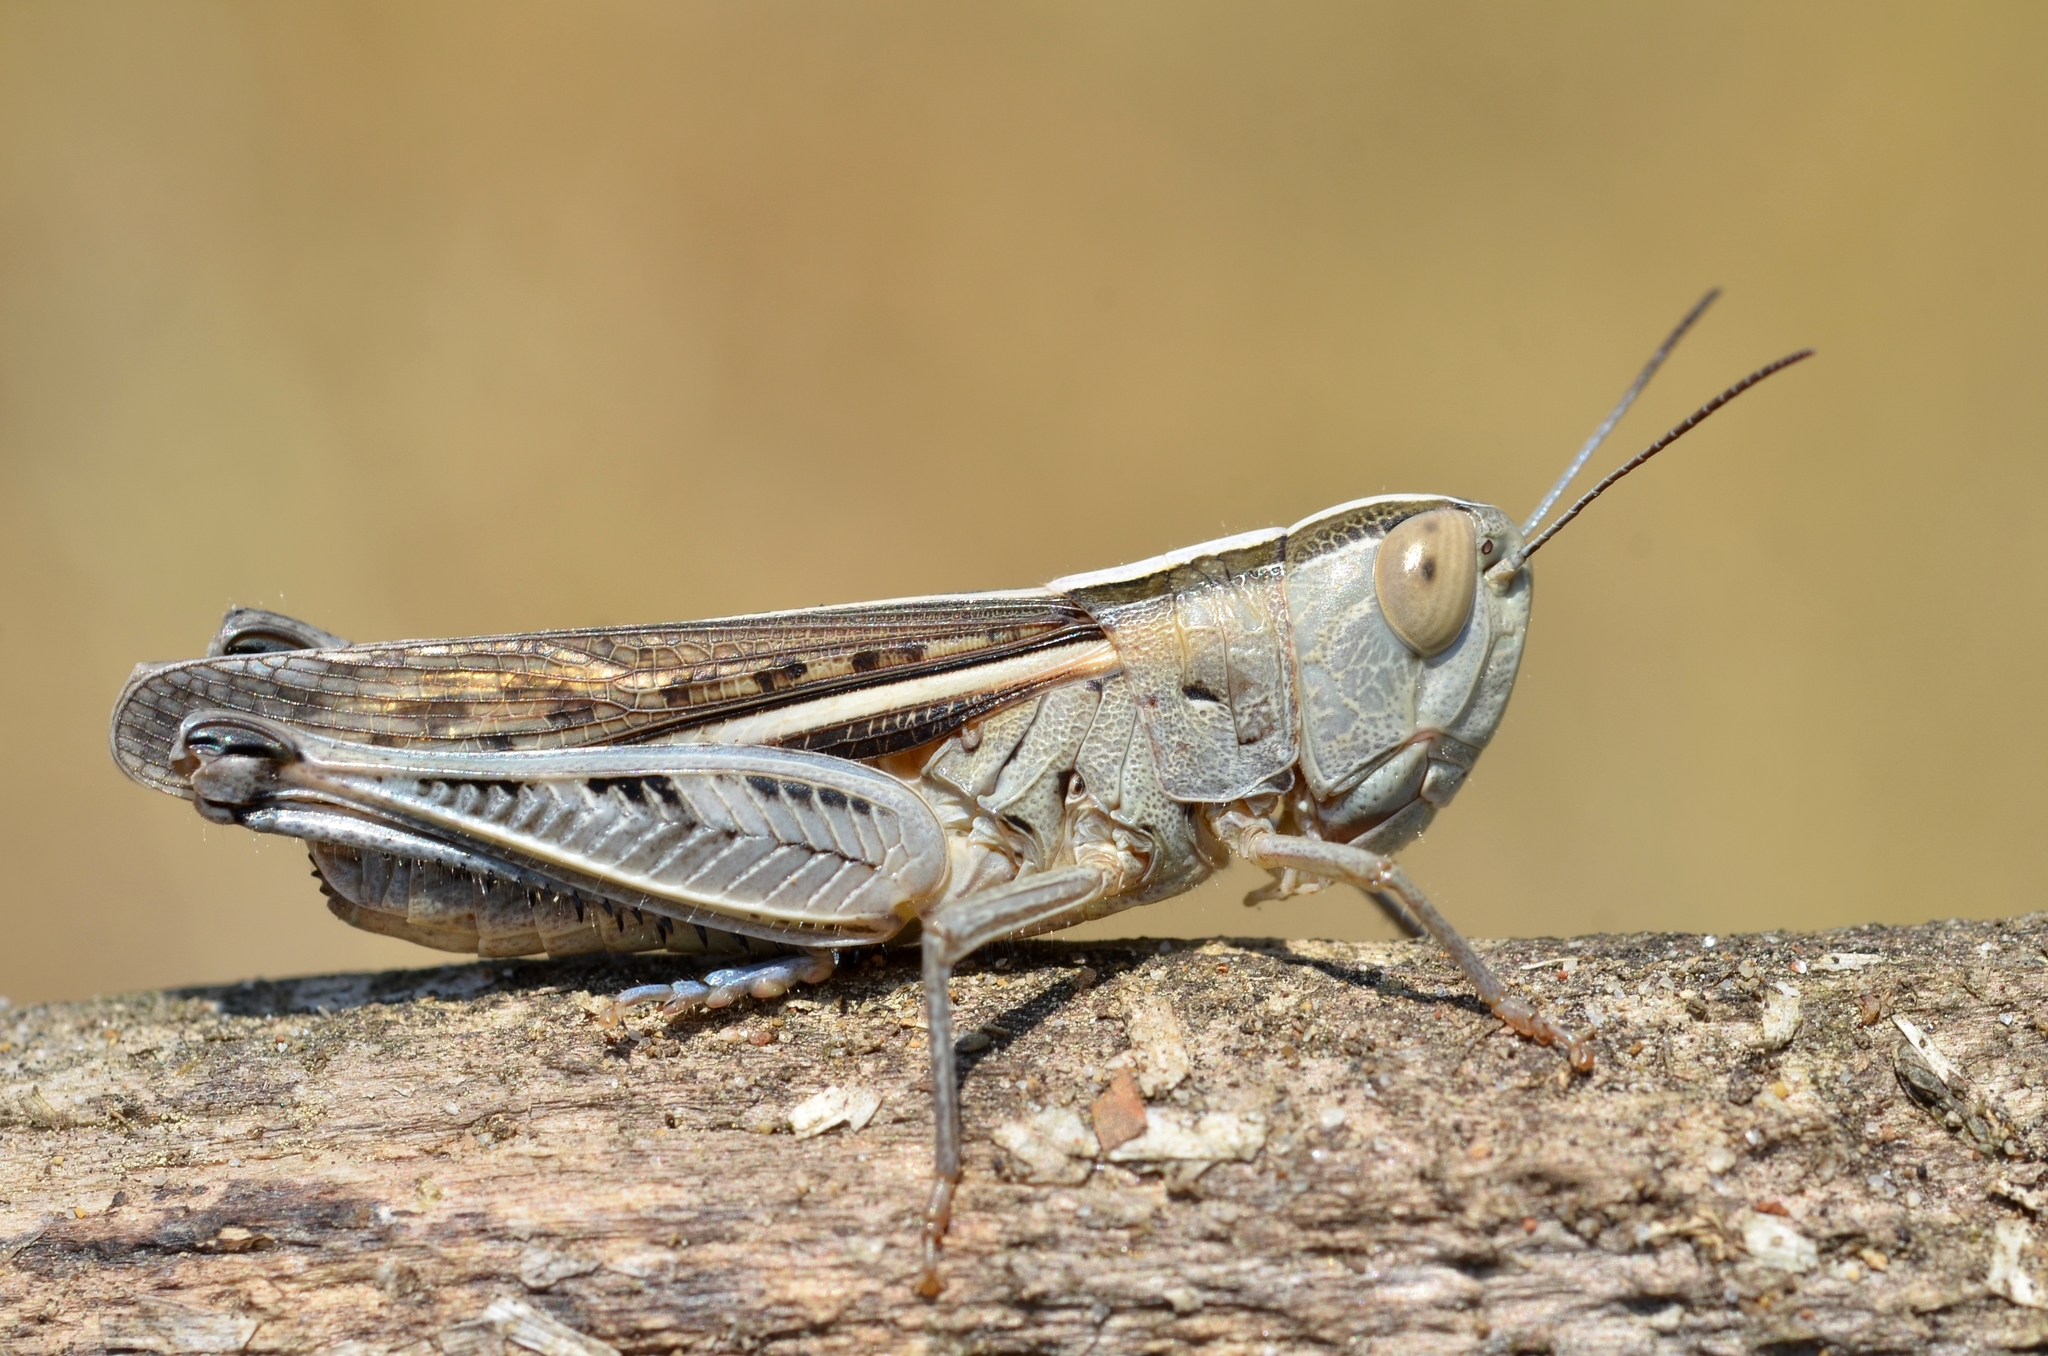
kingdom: Animalia
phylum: Arthropoda
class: Insecta
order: Orthoptera
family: Acrididae
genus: Ramburiella
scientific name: Ramburiella hispanica
